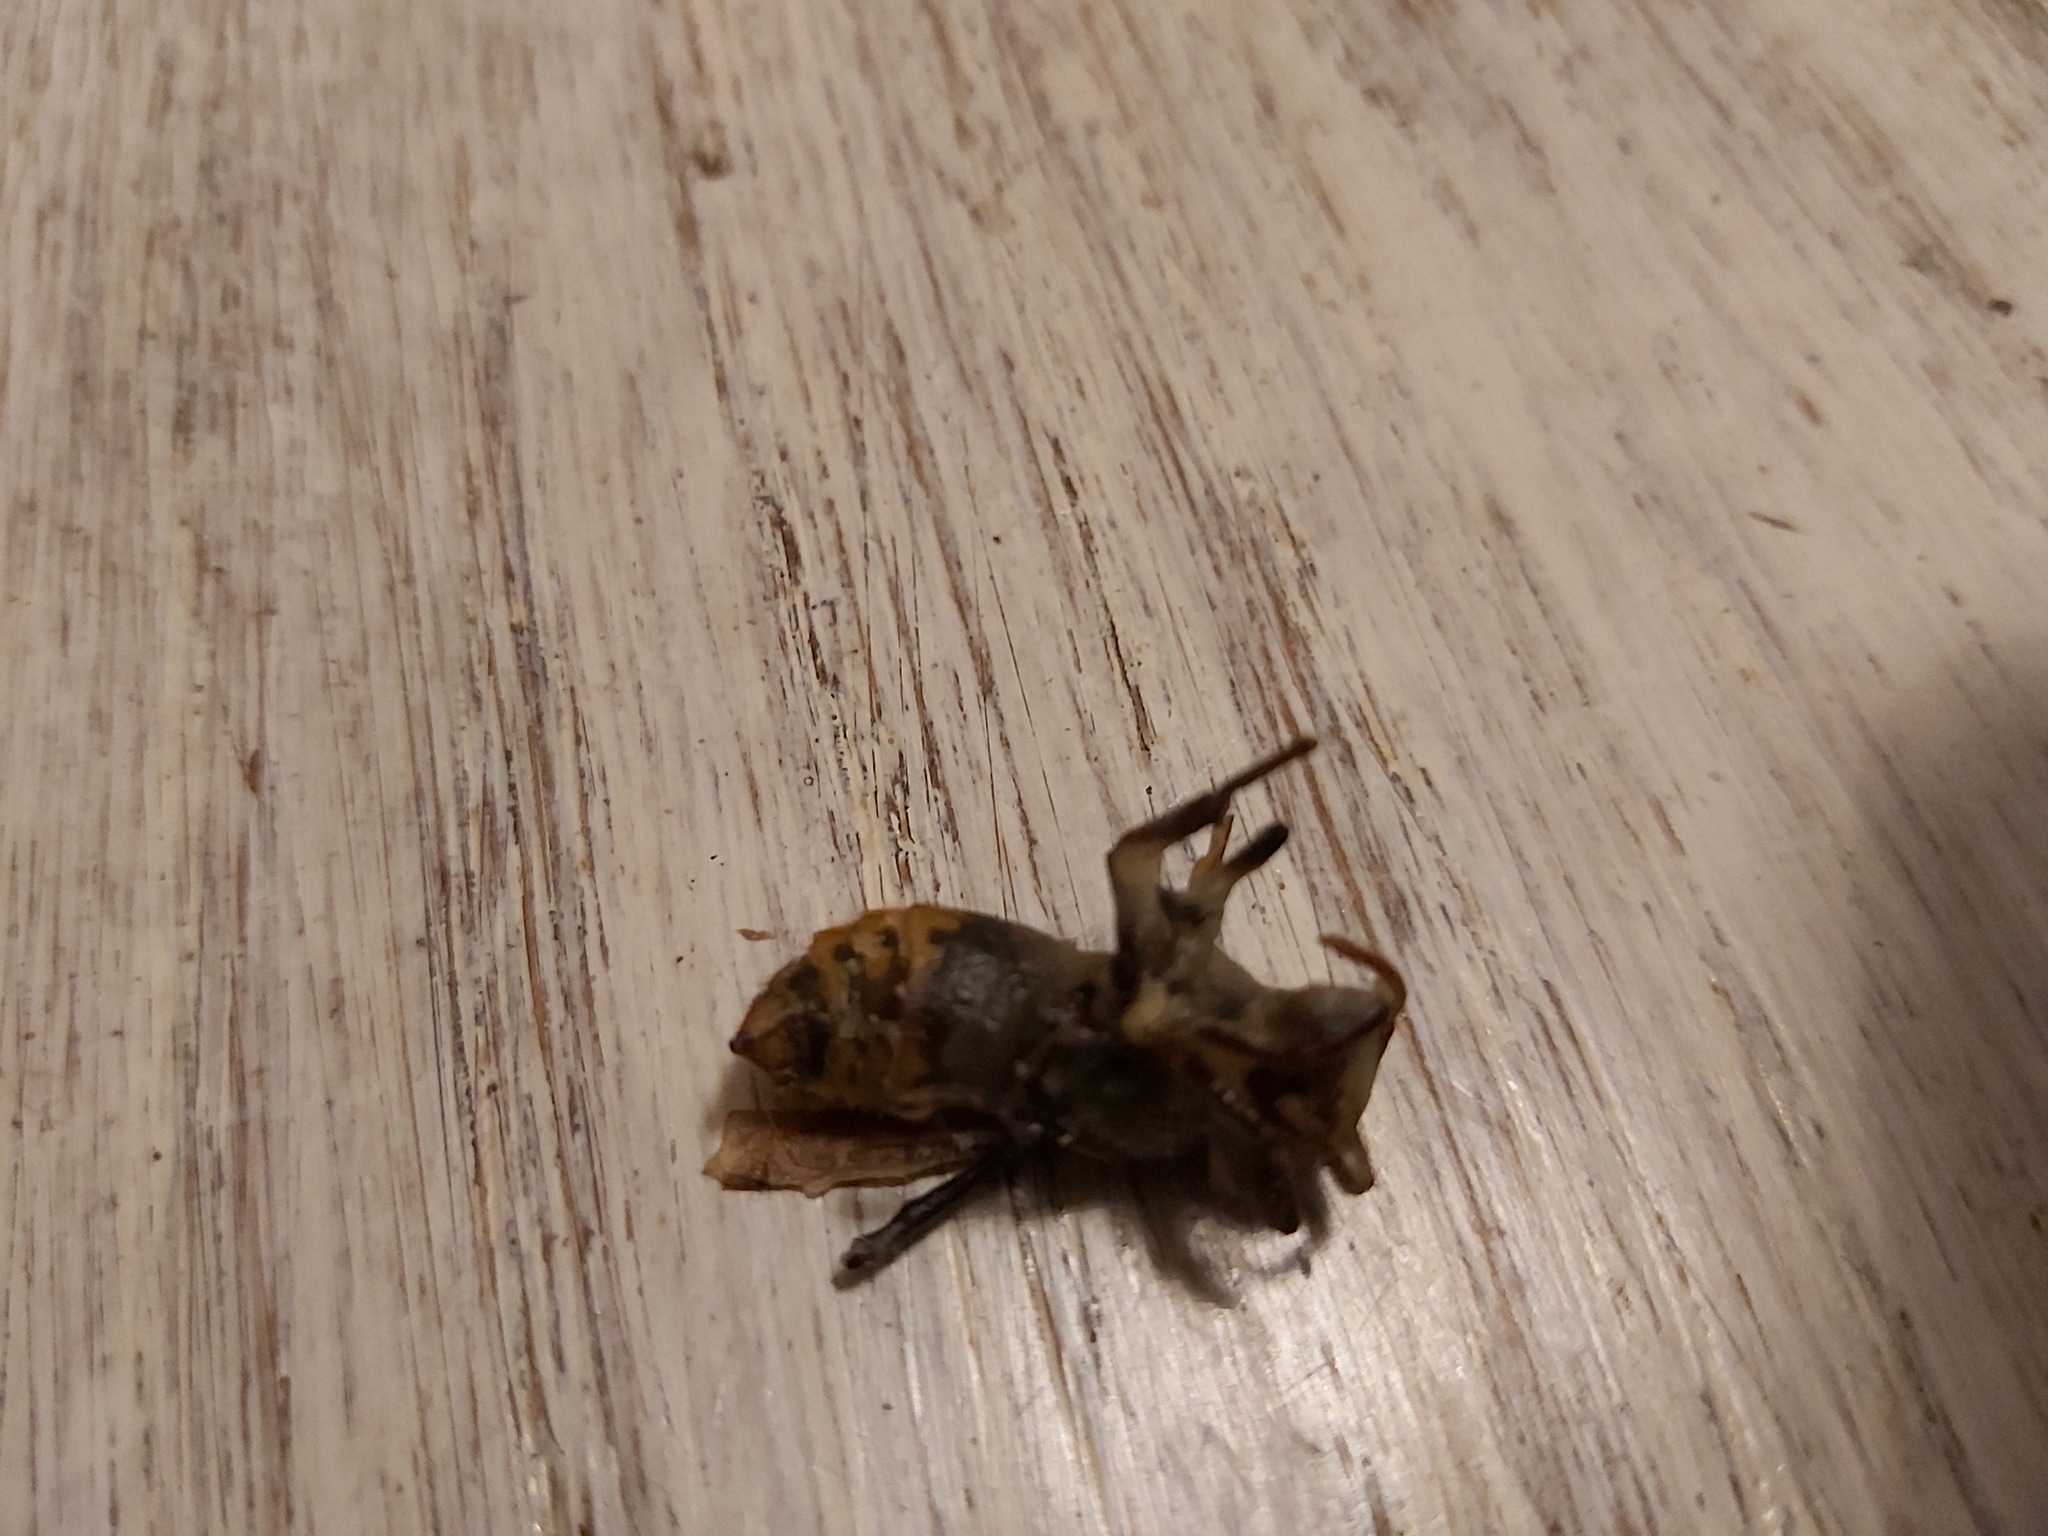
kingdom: Animalia
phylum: Arthropoda
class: Insecta
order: Hymenoptera
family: Vespidae
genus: Vespa
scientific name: Vespa crabro
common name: Hornet
